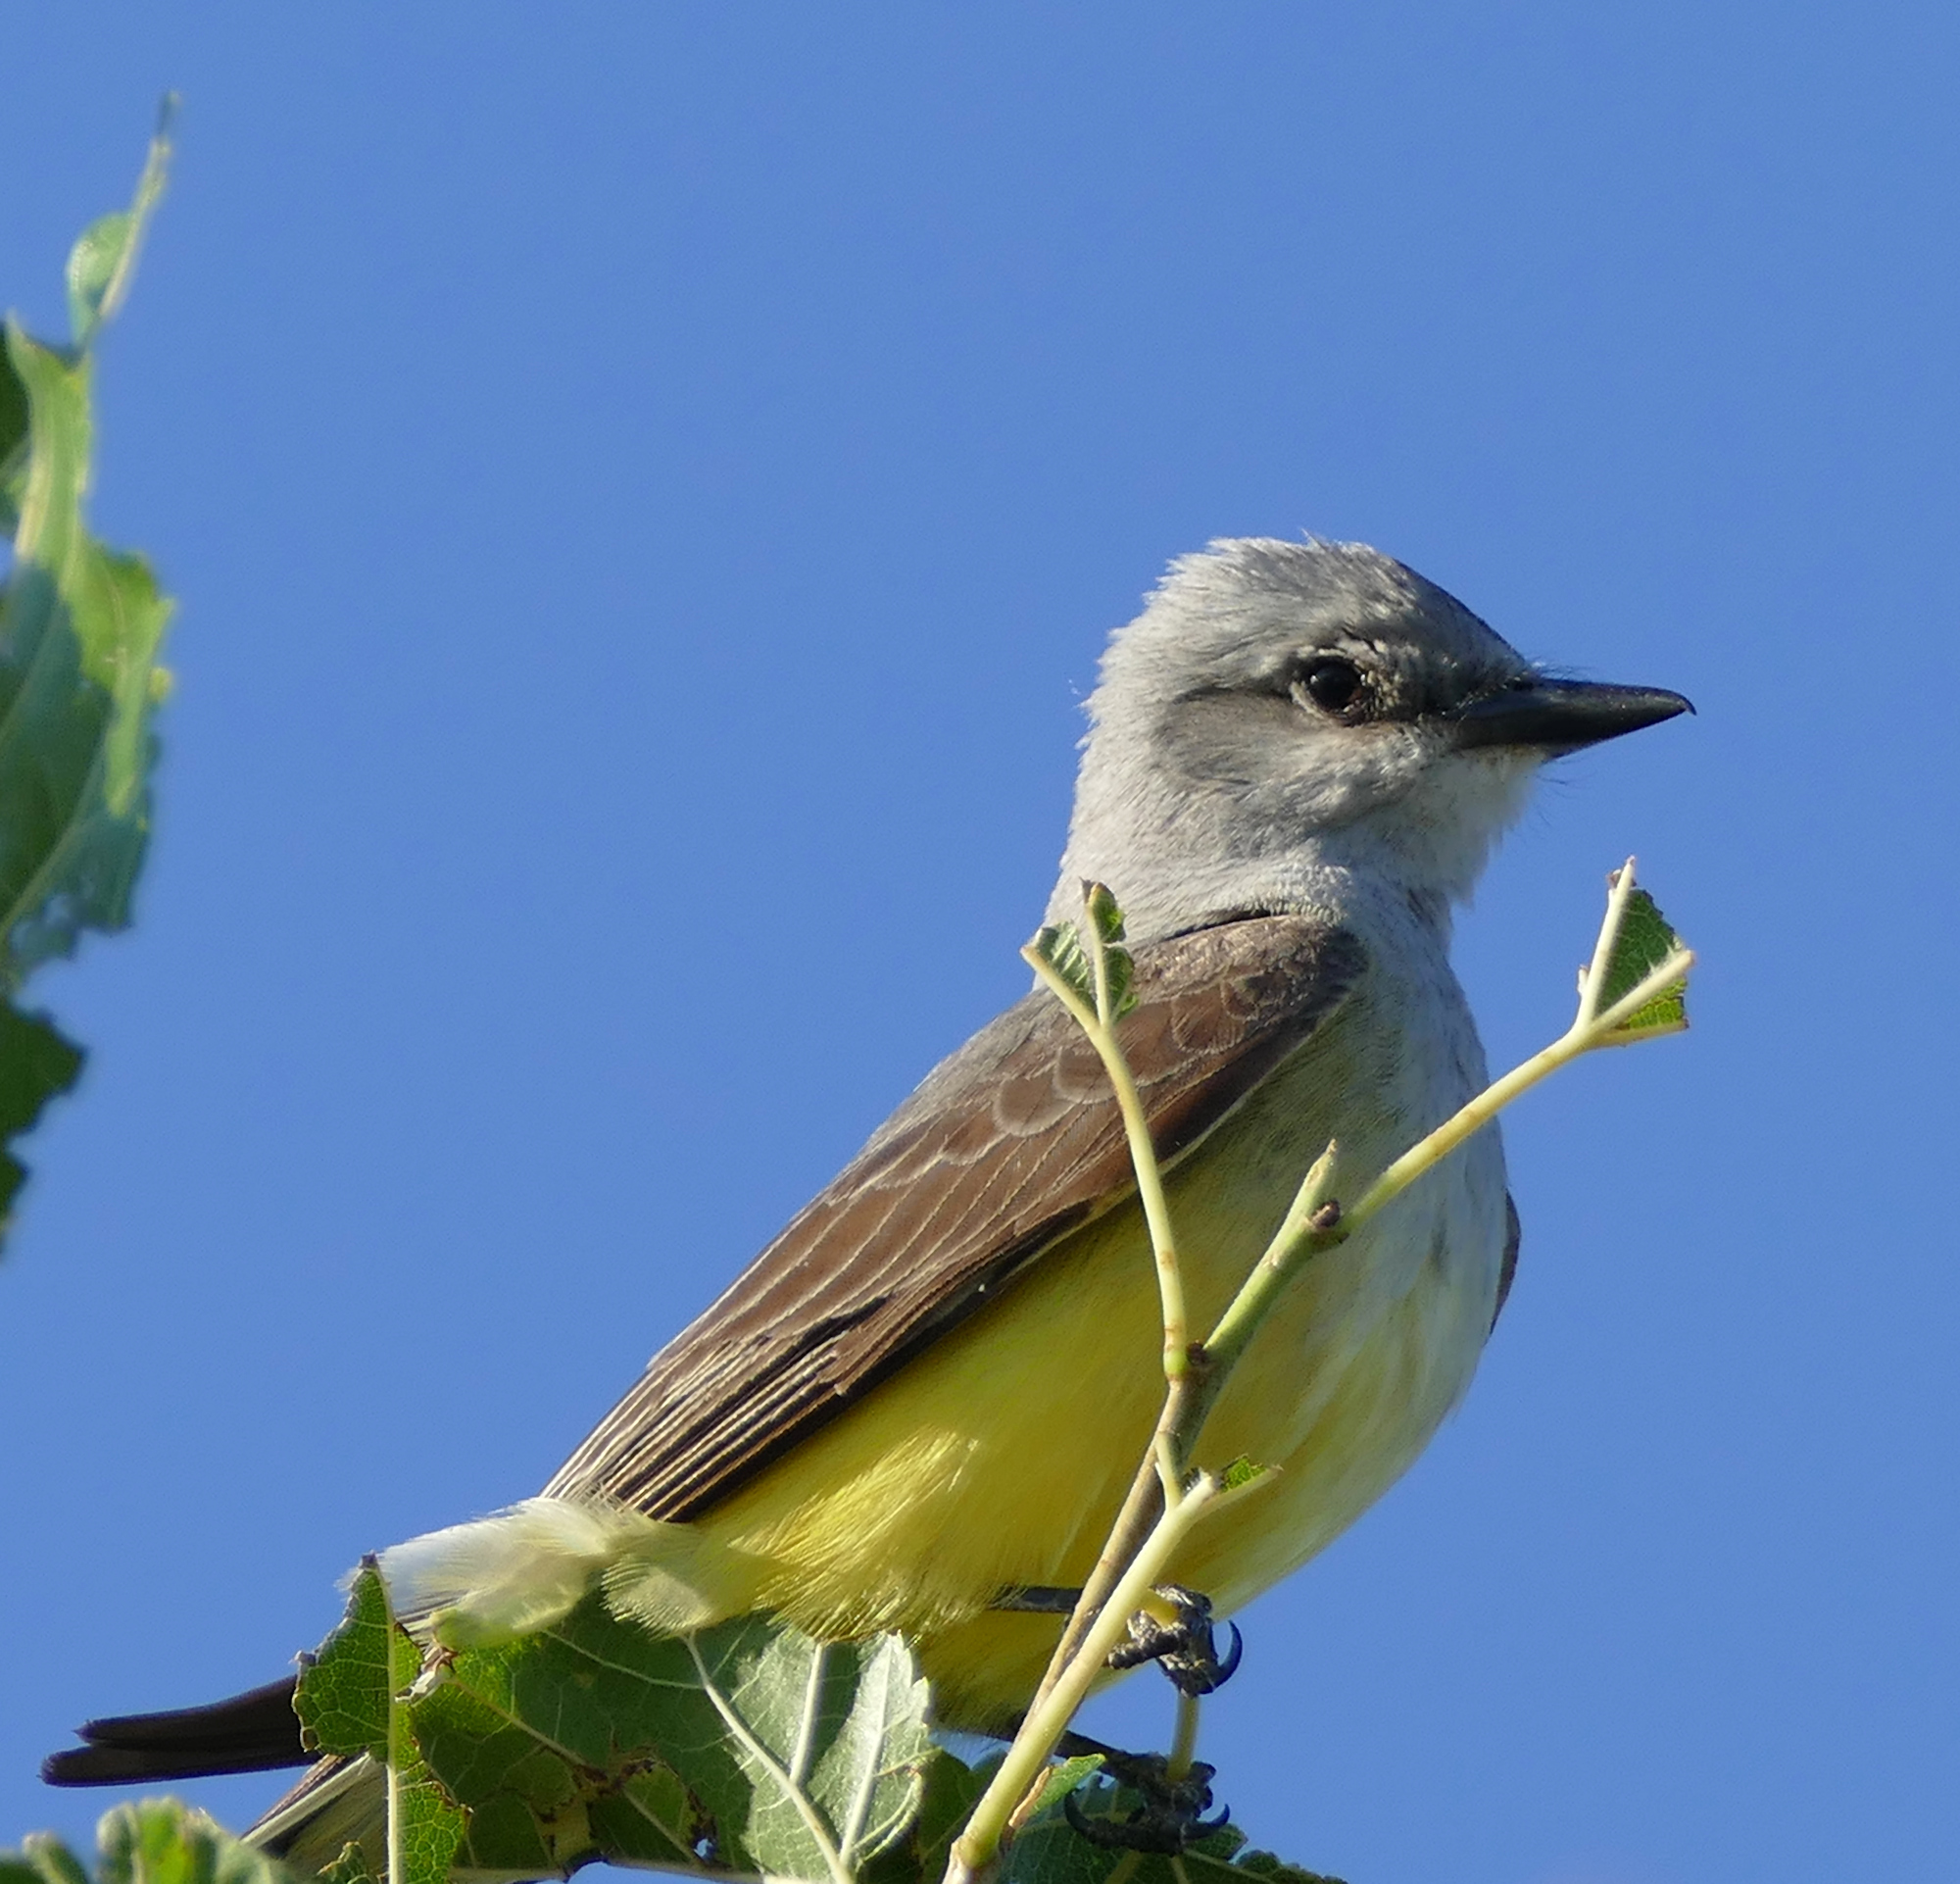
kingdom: Animalia
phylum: Chordata
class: Aves
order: Passeriformes
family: Tyrannidae
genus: Tyrannus
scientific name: Tyrannus verticalis
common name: Western kingbird
